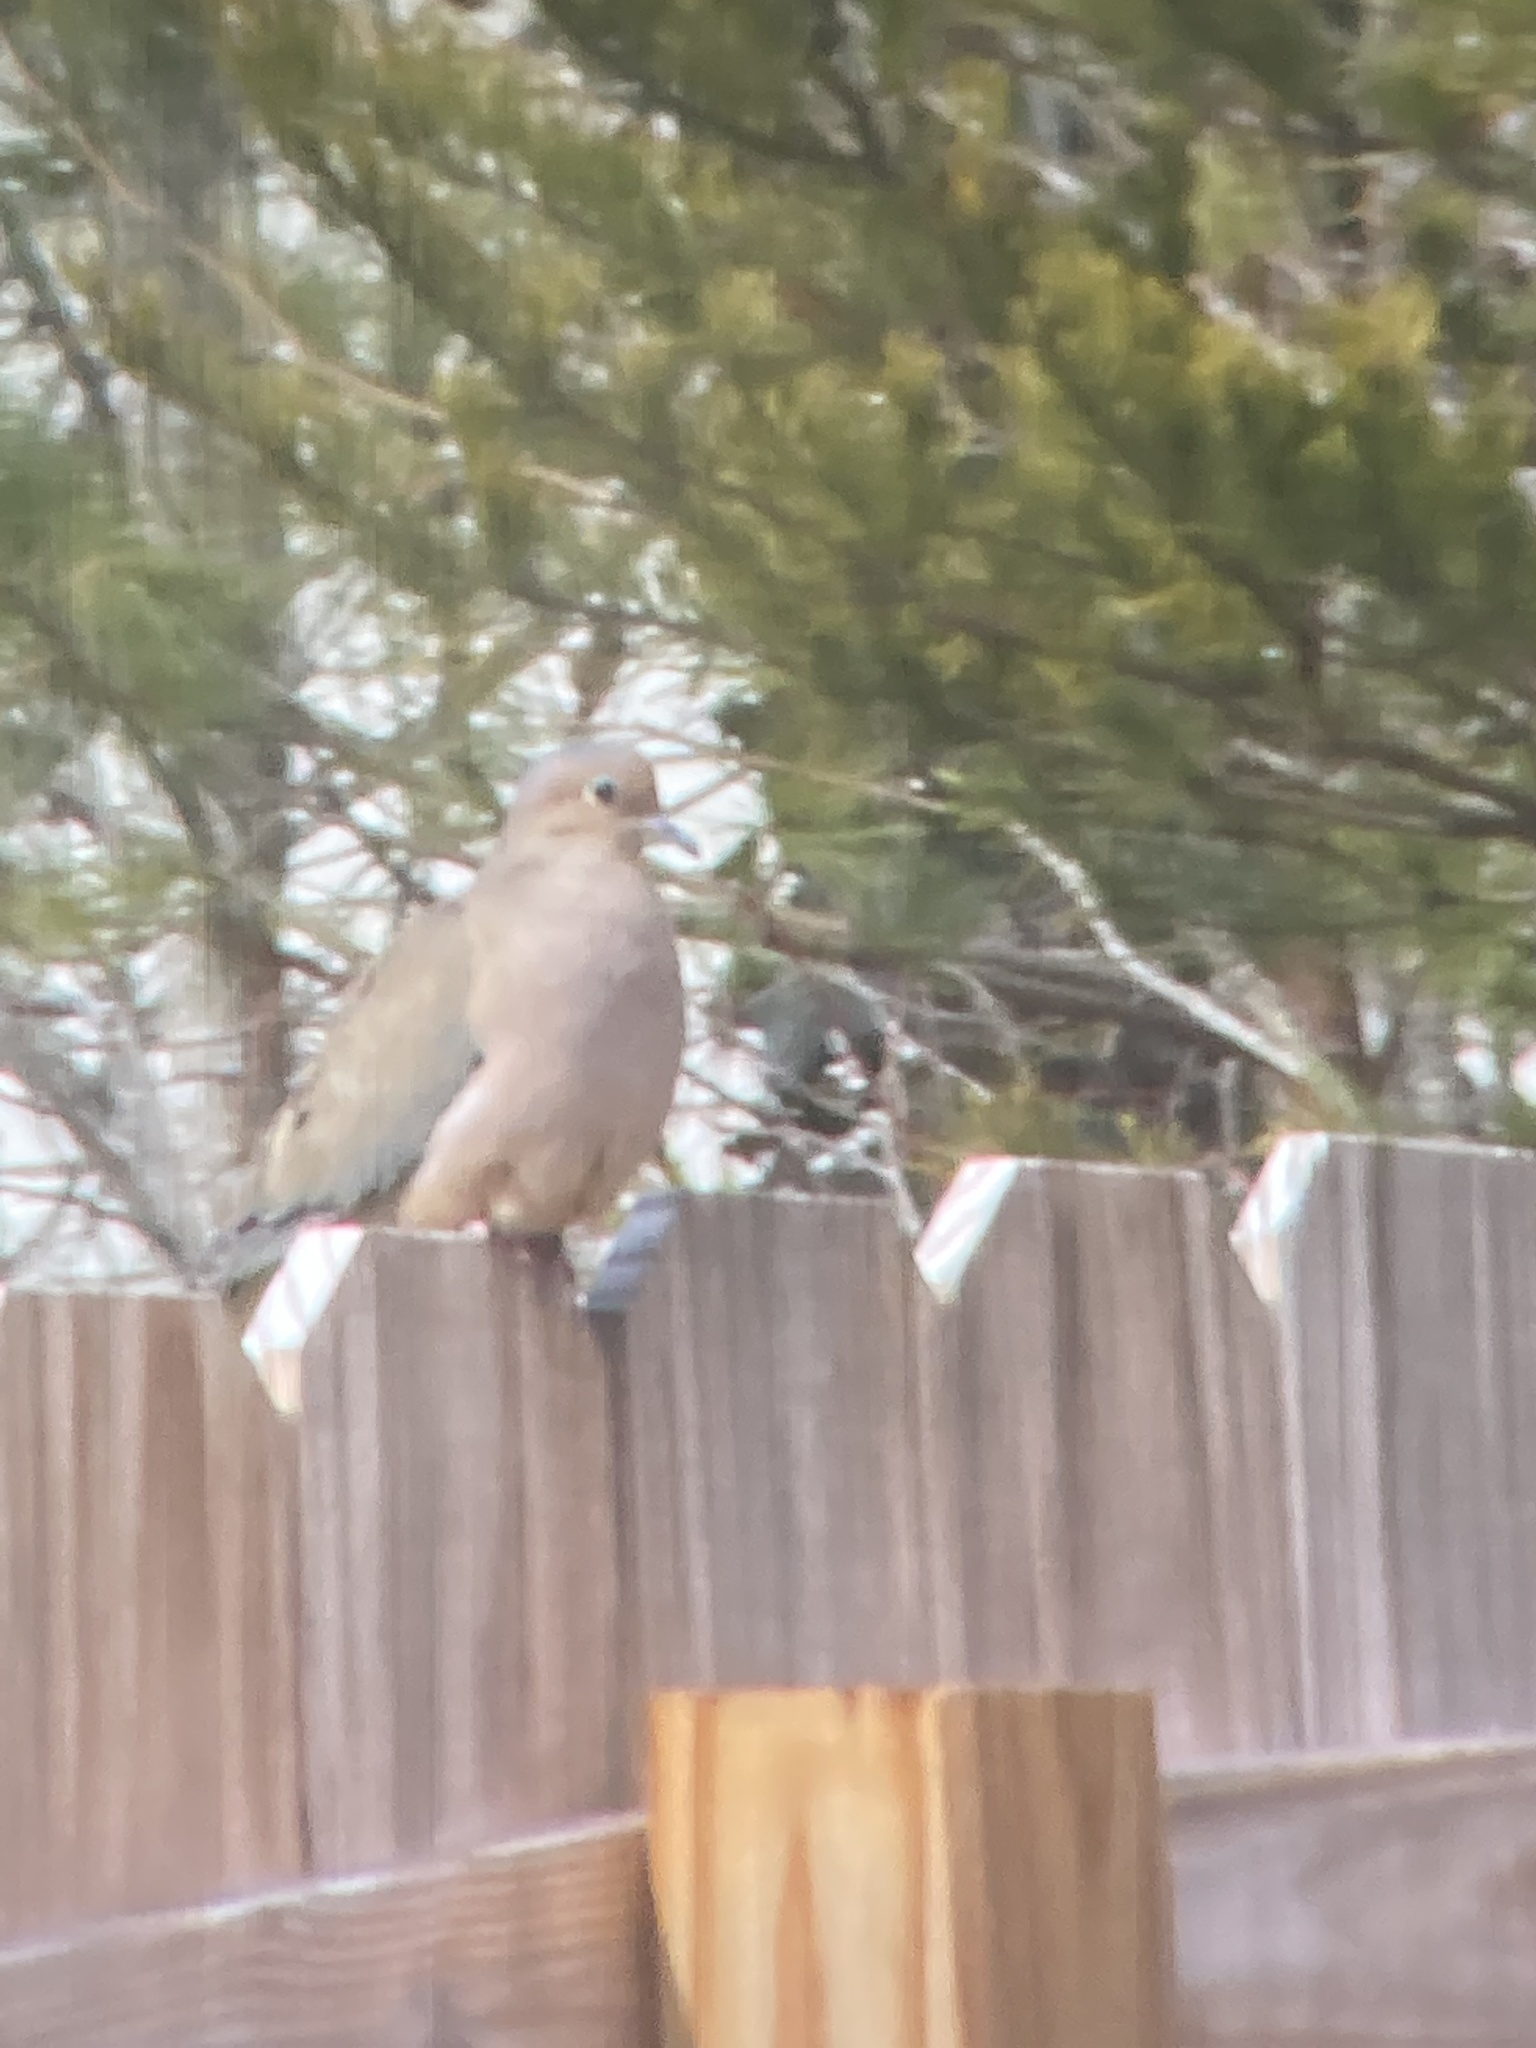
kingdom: Animalia
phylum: Chordata
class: Aves
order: Columbiformes
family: Columbidae
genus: Zenaida
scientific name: Zenaida macroura
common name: Mourning dove
